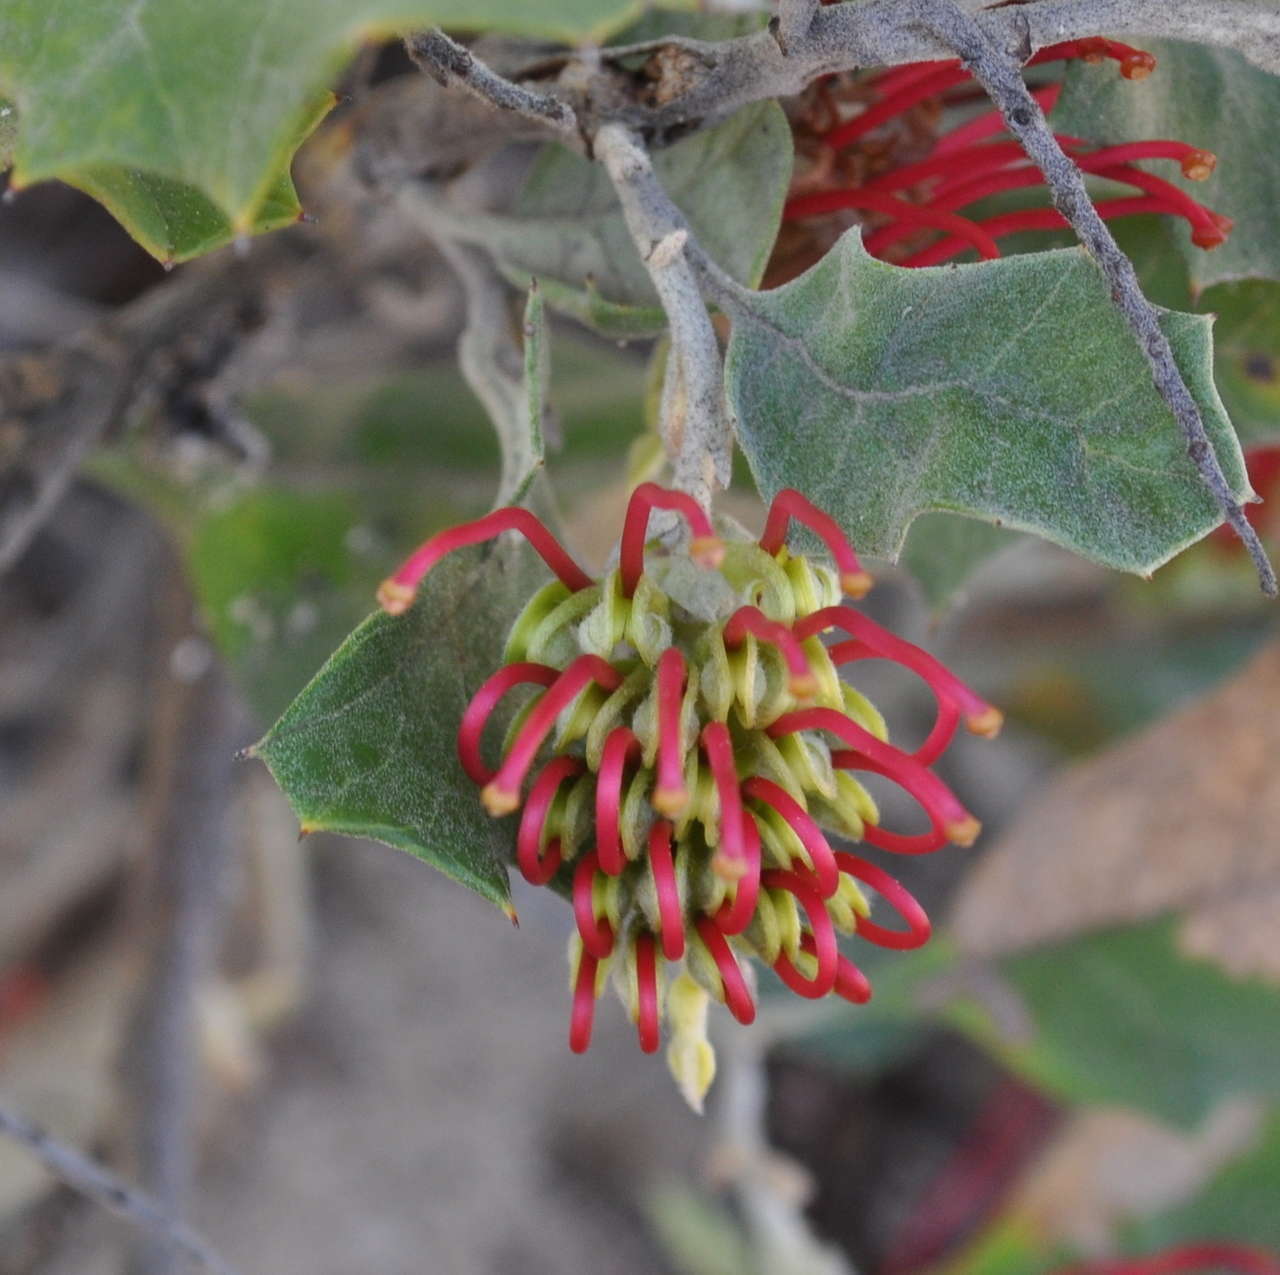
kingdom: Plantae
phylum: Tracheophyta
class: Magnoliopsida
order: Proteales
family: Proteaceae
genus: Grevillea
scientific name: Grevillea aquifolium
